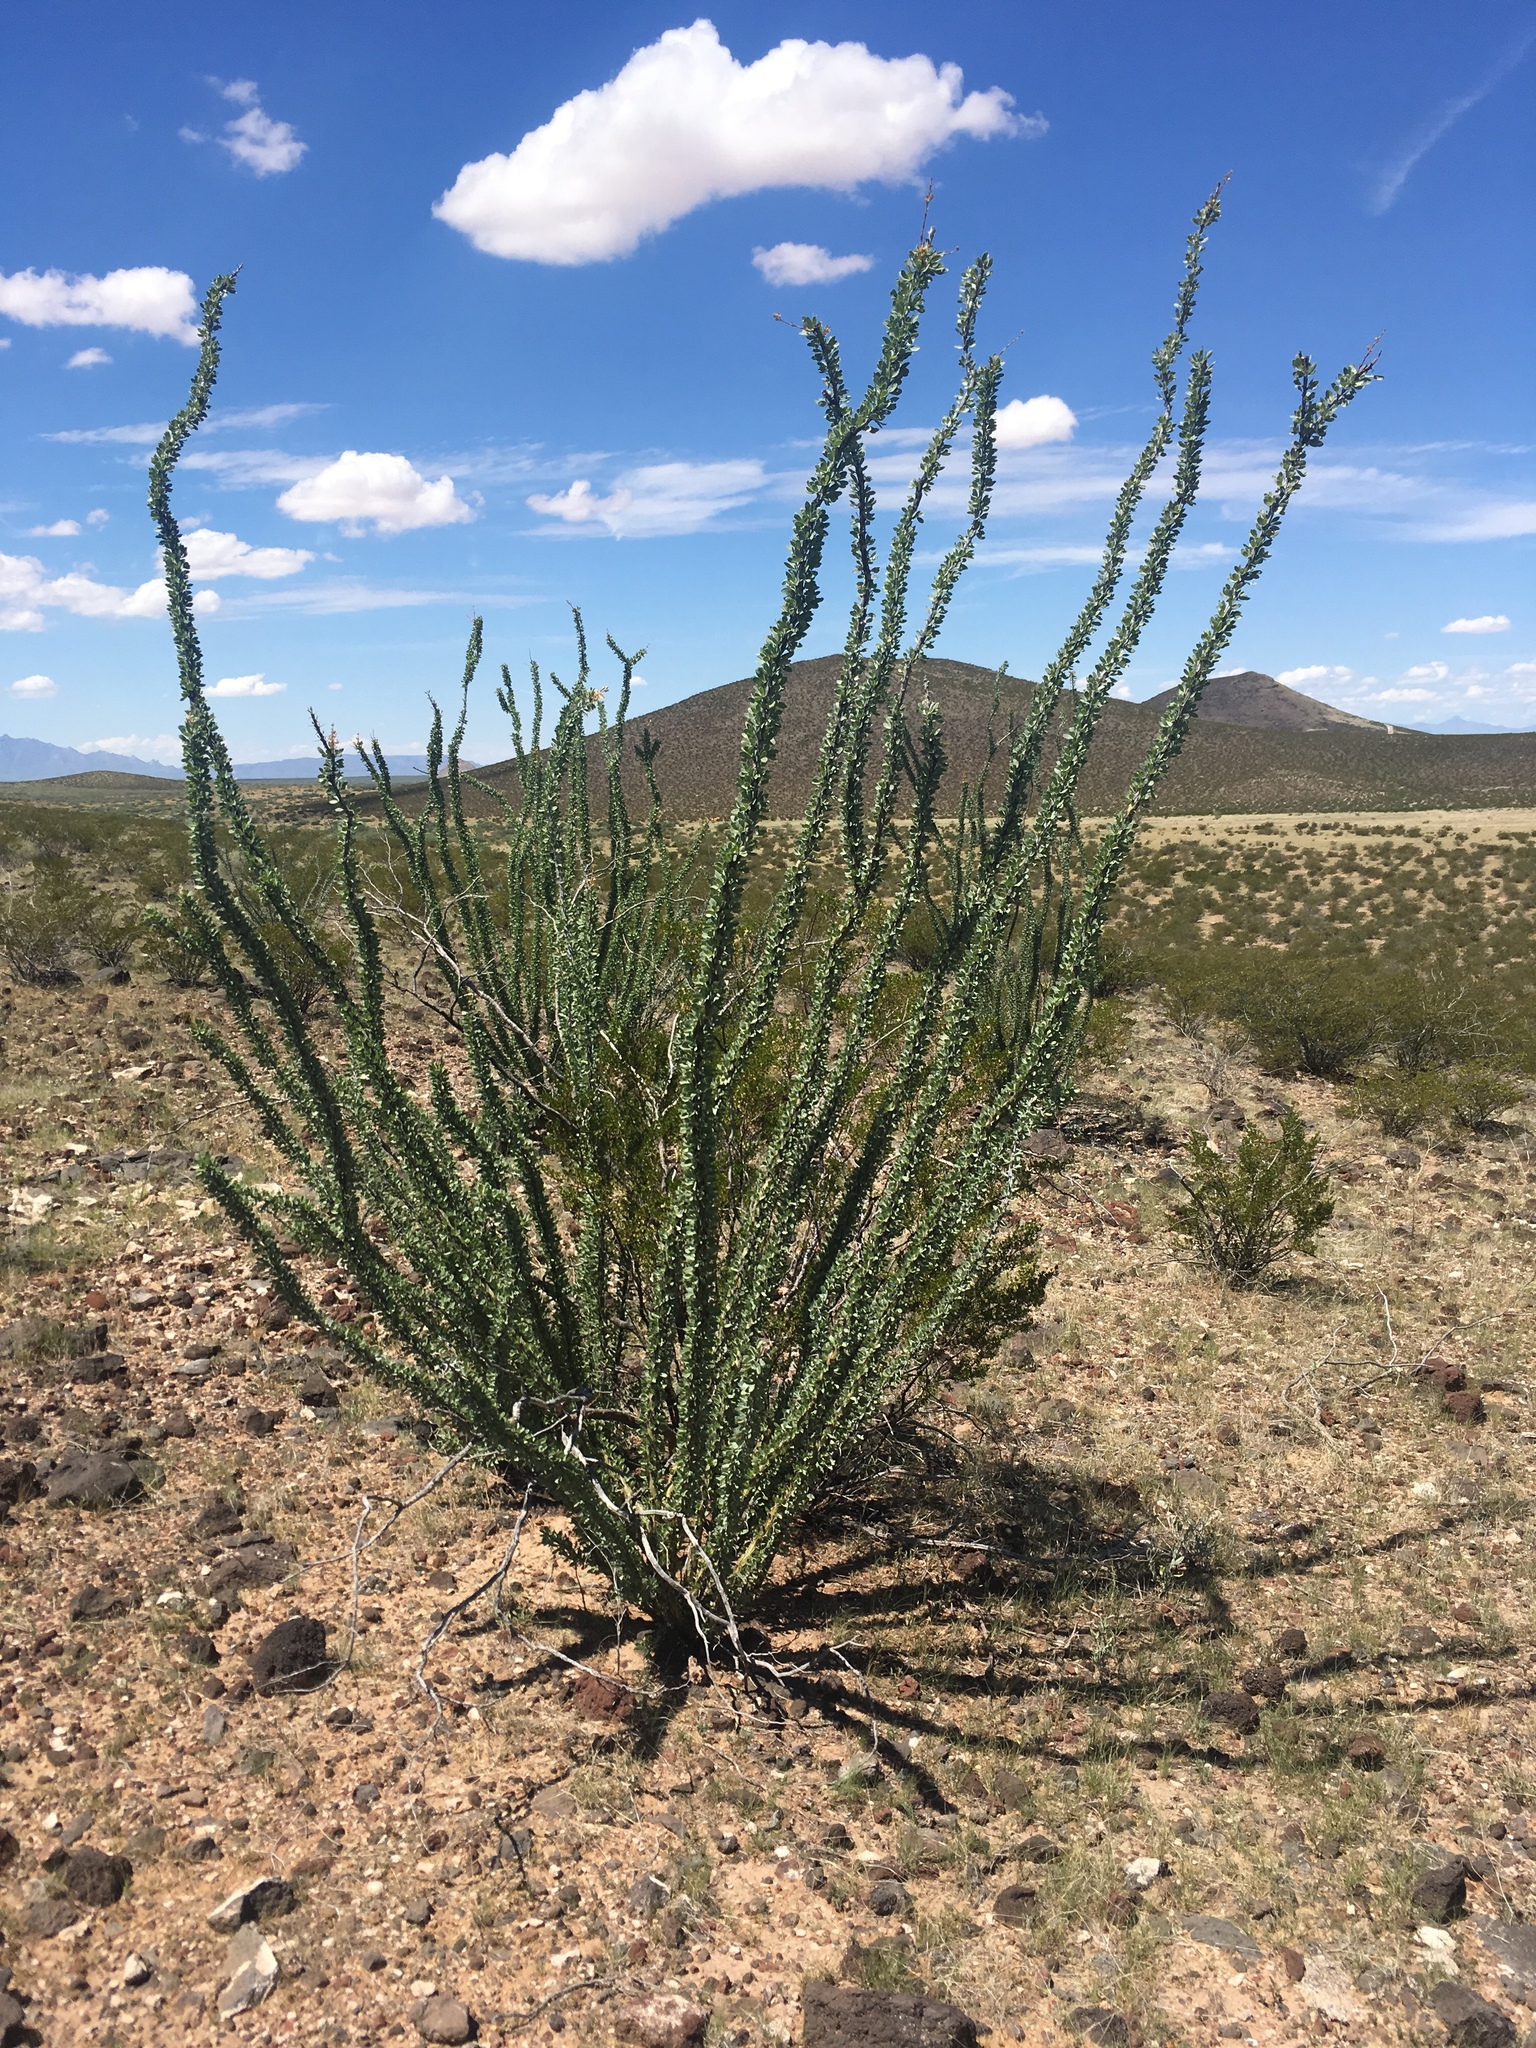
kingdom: Plantae
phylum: Tracheophyta
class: Magnoliopsida
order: Ericales
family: Fouquieriaceae
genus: Fouquieria
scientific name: Fouquieria splendens
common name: Vine-cactus
